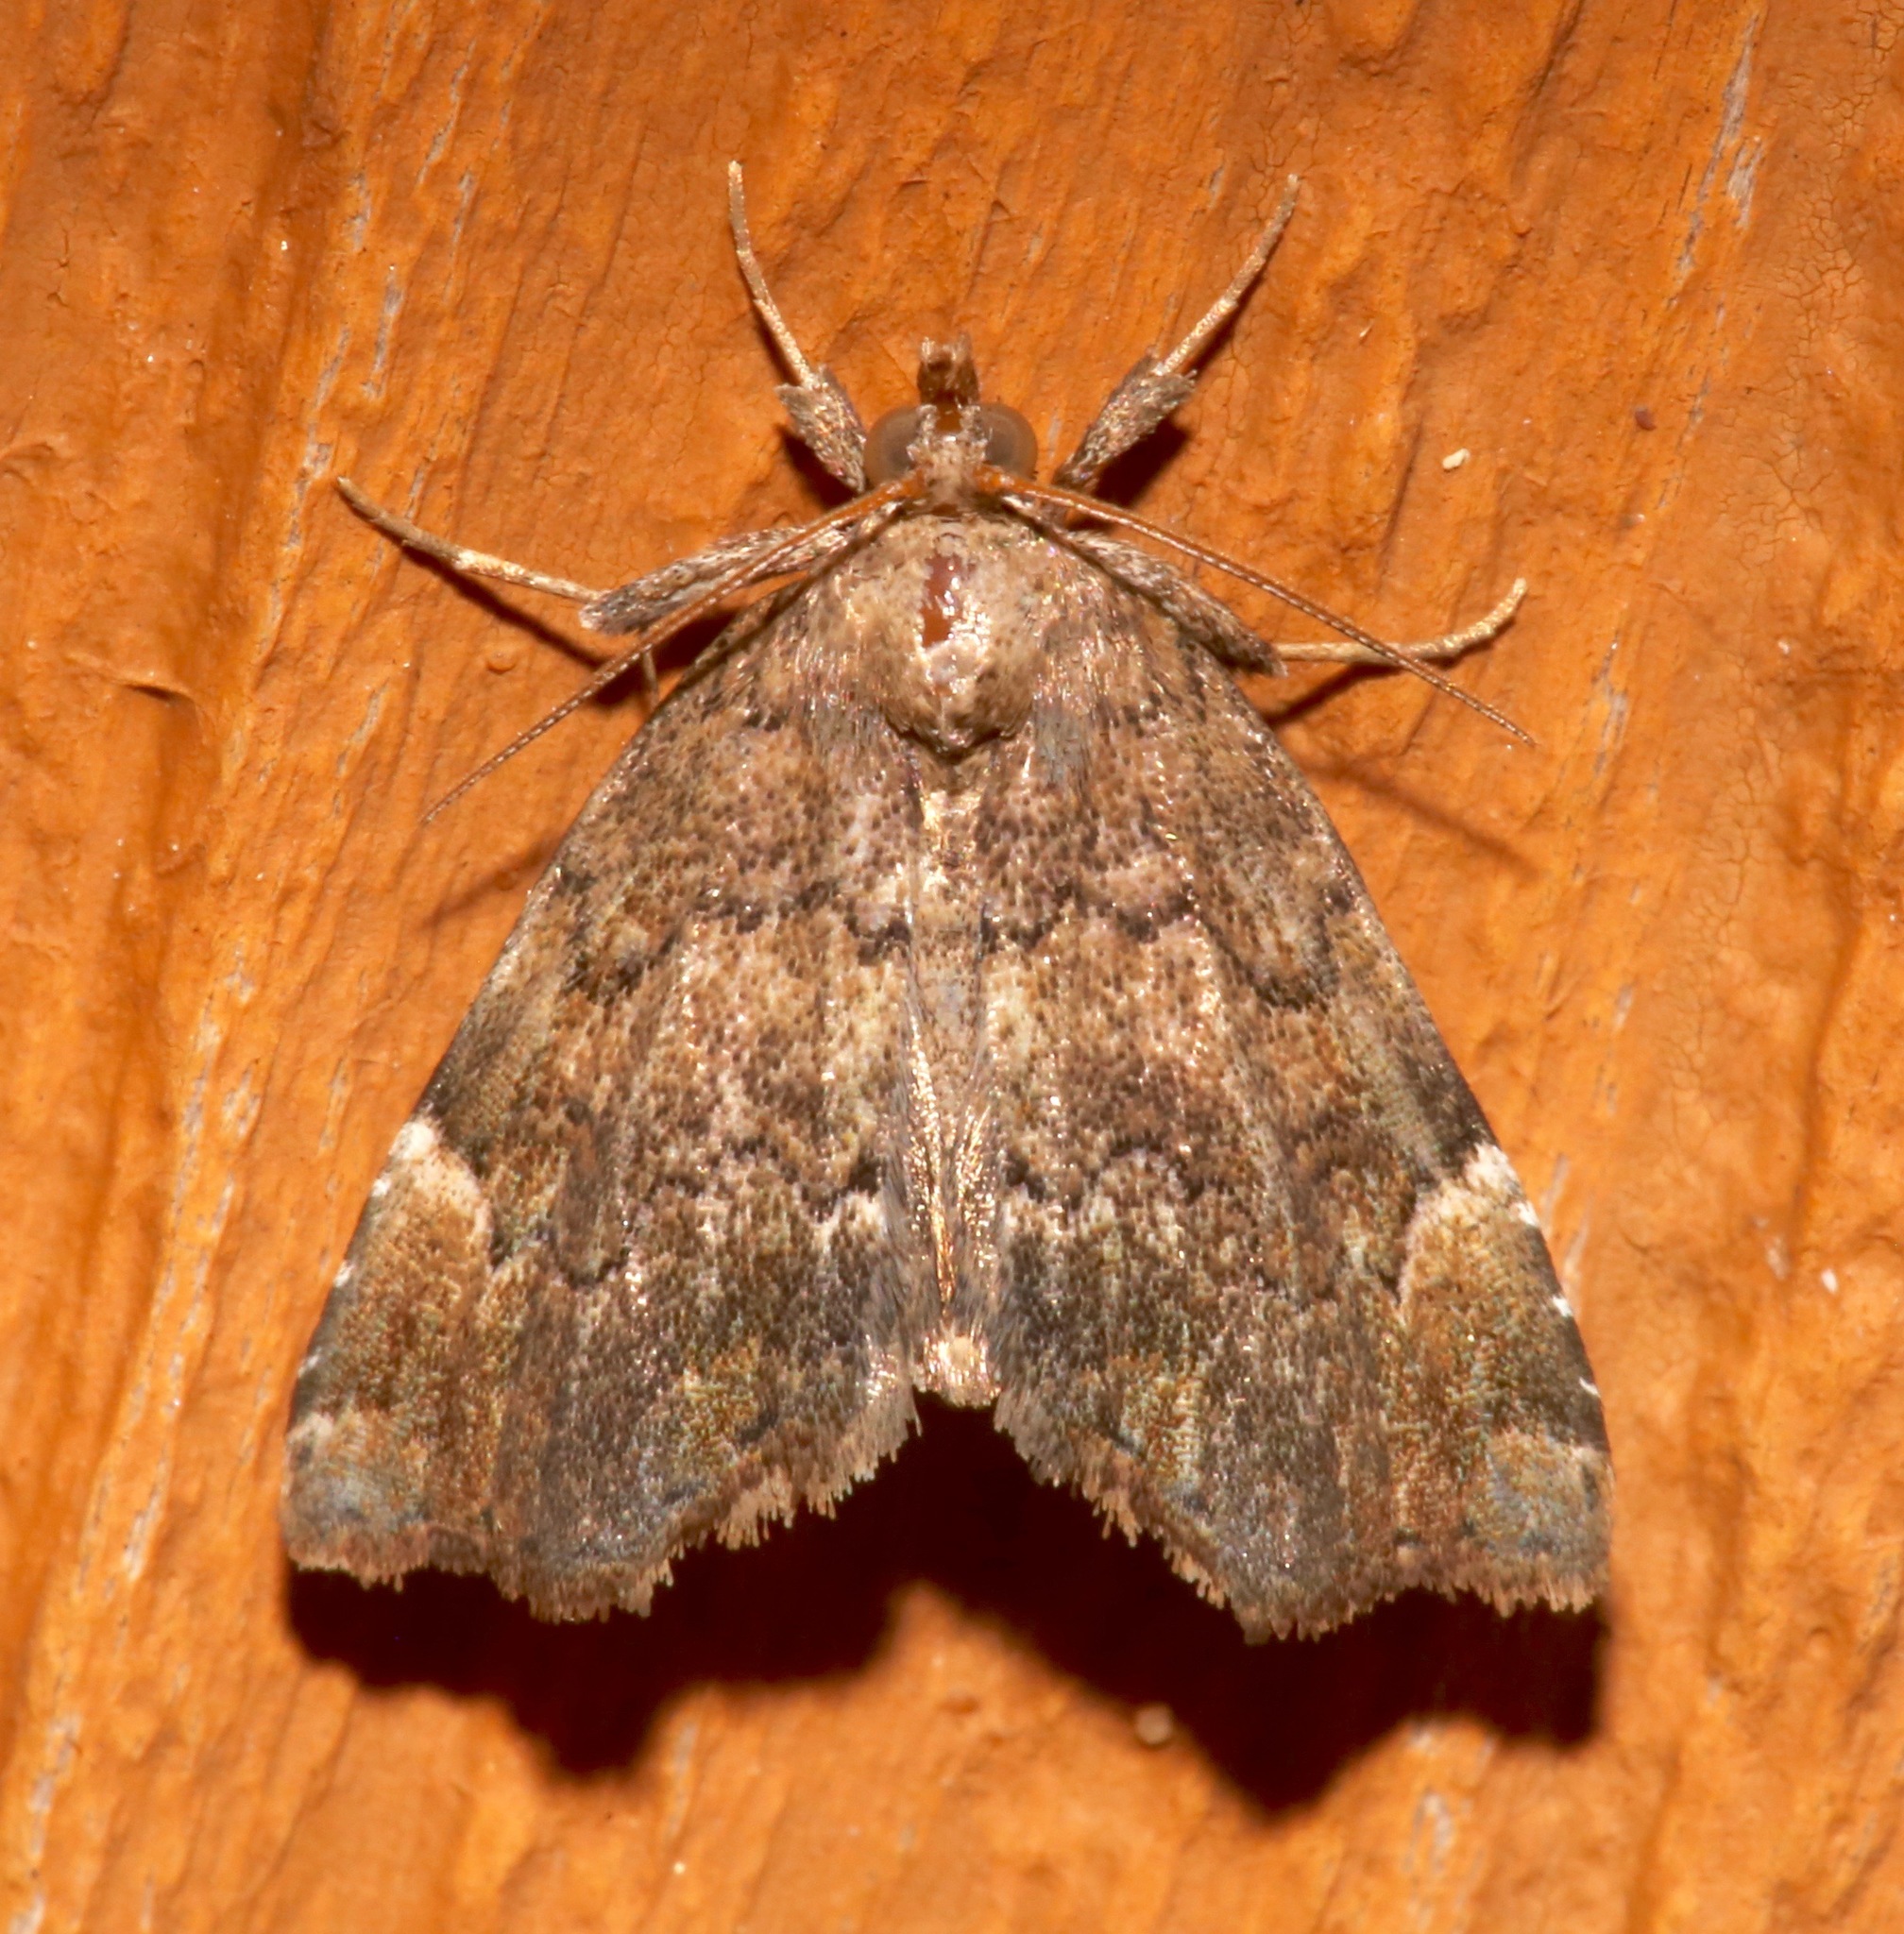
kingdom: Animalia
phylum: Arthropoda
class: Insecta
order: Lepidoptera
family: Erebidae
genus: Cutina
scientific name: Cutina aluticolor
